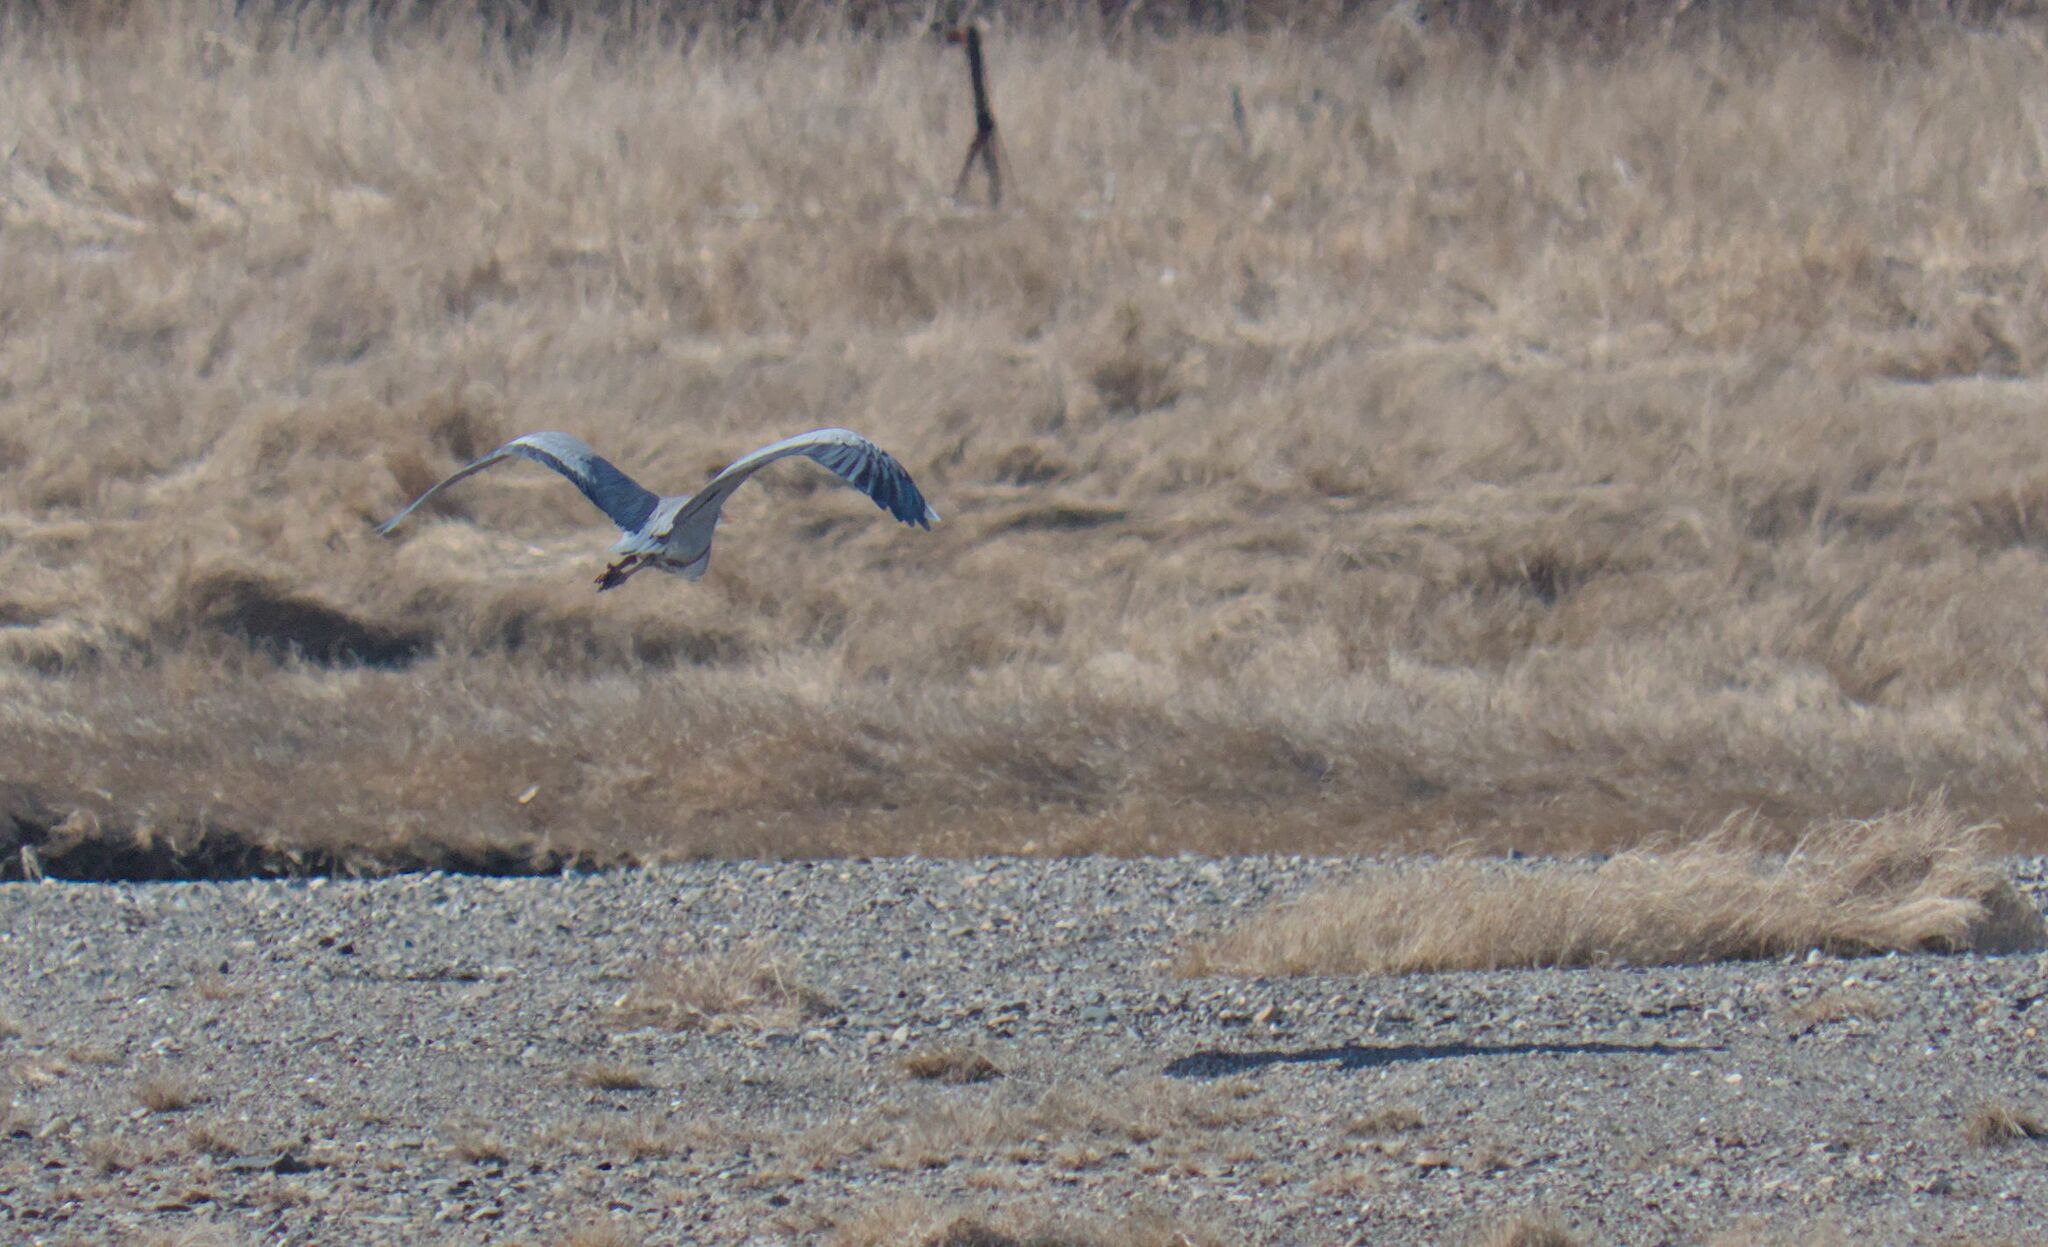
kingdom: Animalia
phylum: Chordata
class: Aves
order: Pelecaniformes
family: Ardeidae
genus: Ardea
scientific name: Ardea herodias
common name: Great blue heron
